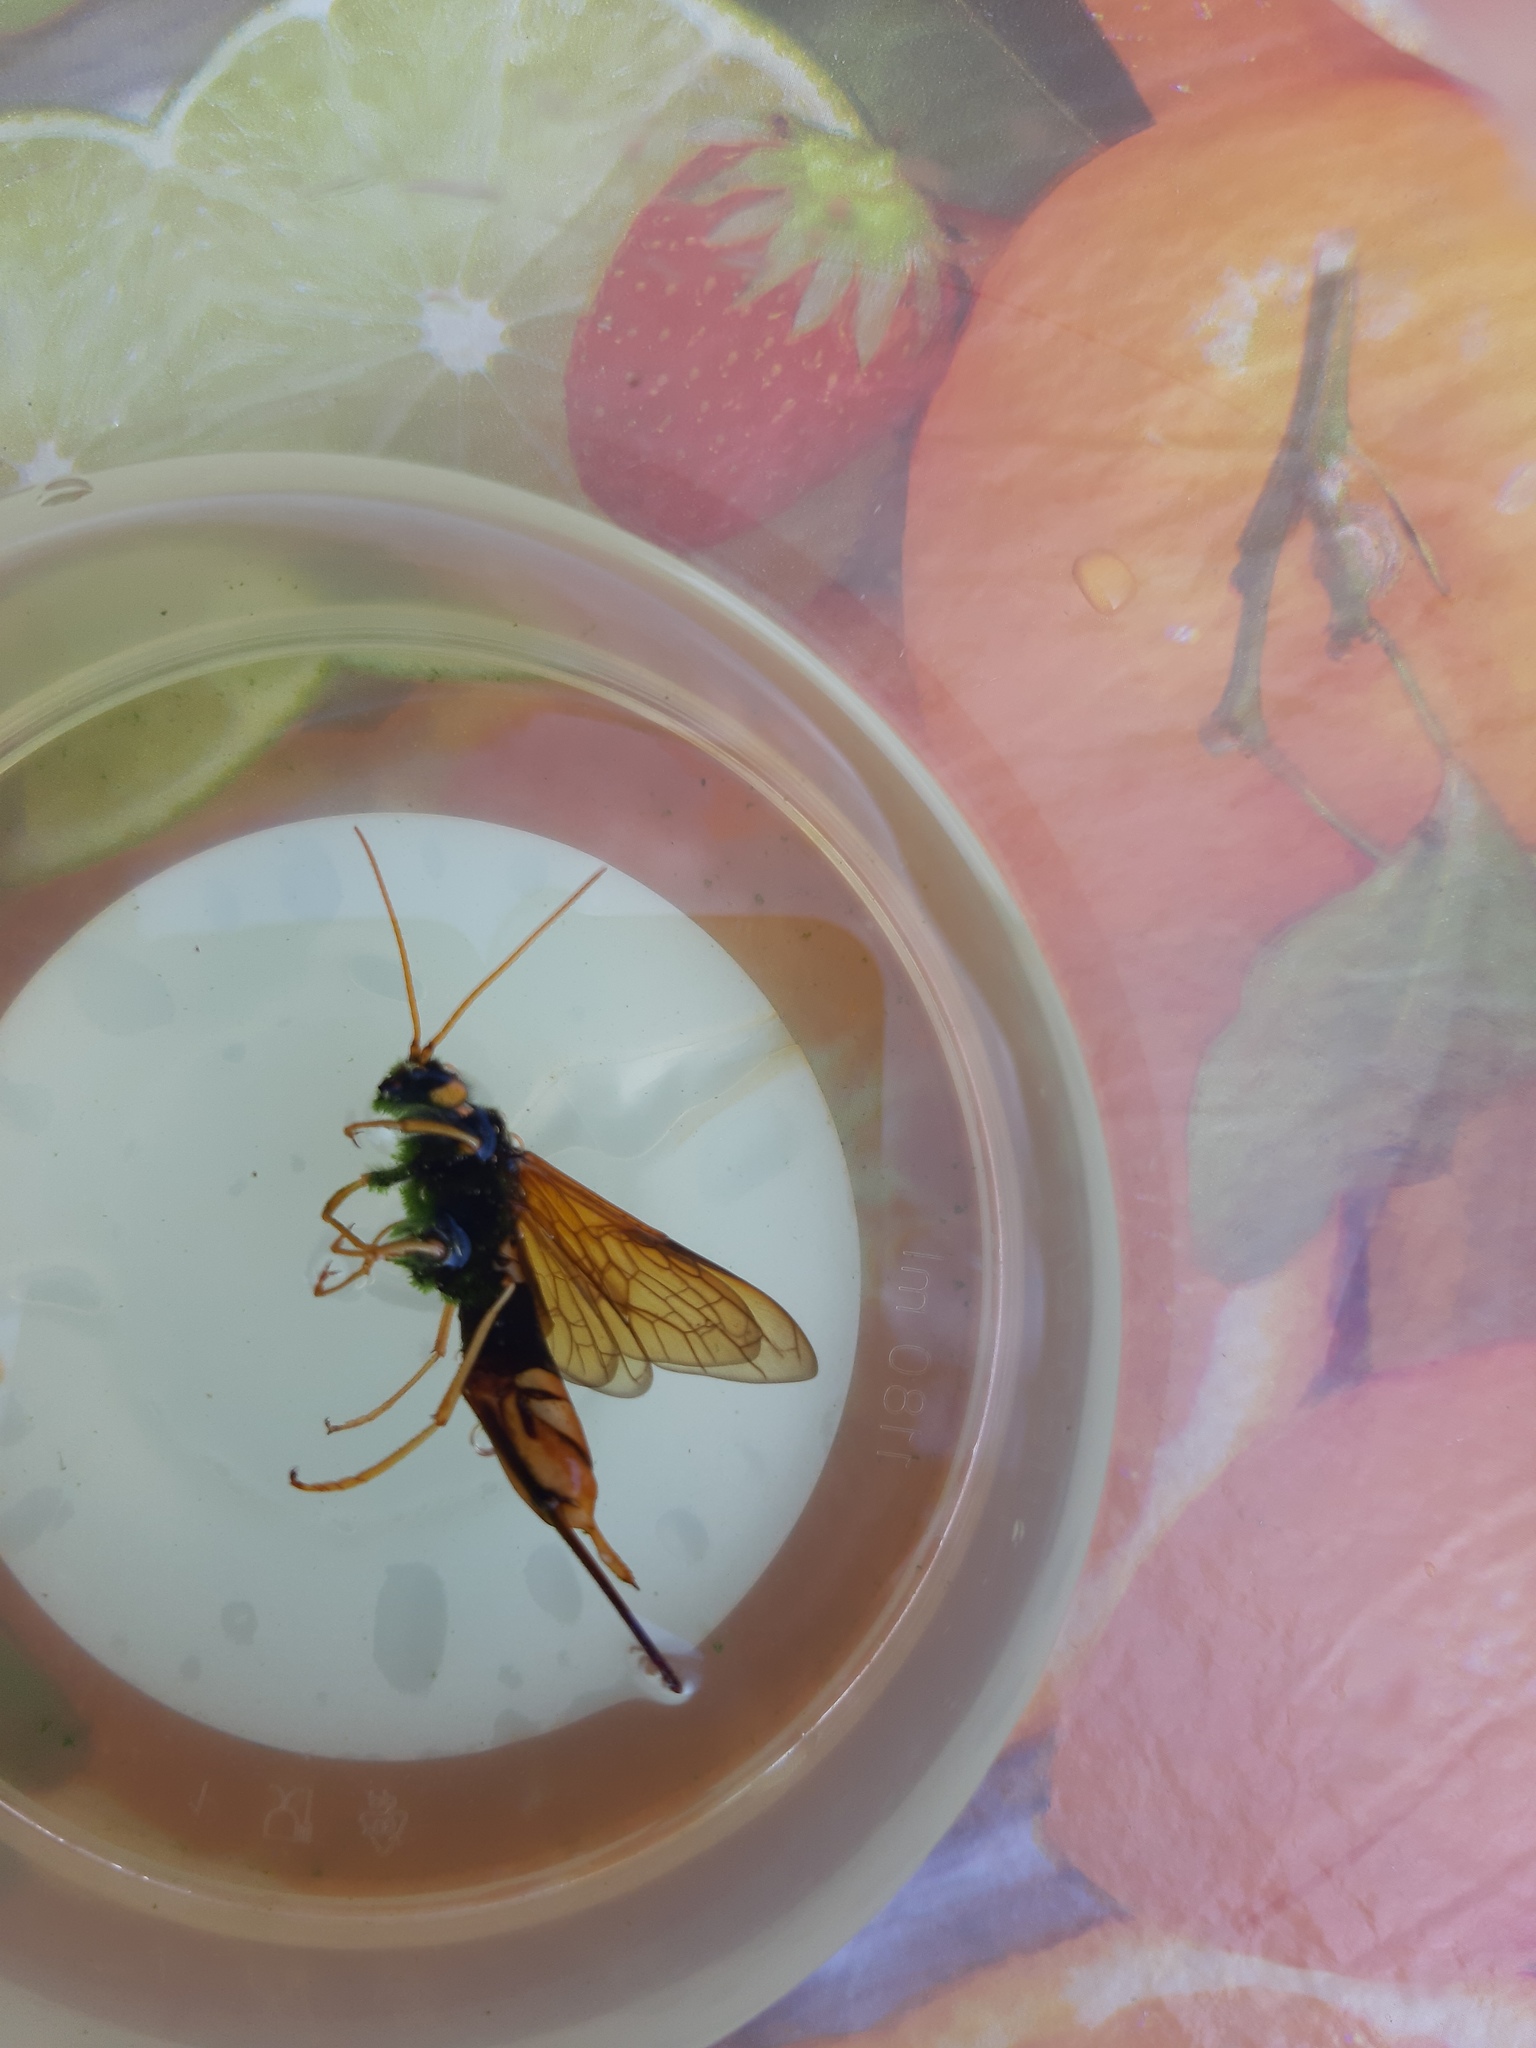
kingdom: Animalia
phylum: Arthropoda
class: Insecta
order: Hymenoptera
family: Siricidae
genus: Urocerus
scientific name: Urocerus gigas
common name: Giant woodwasp
